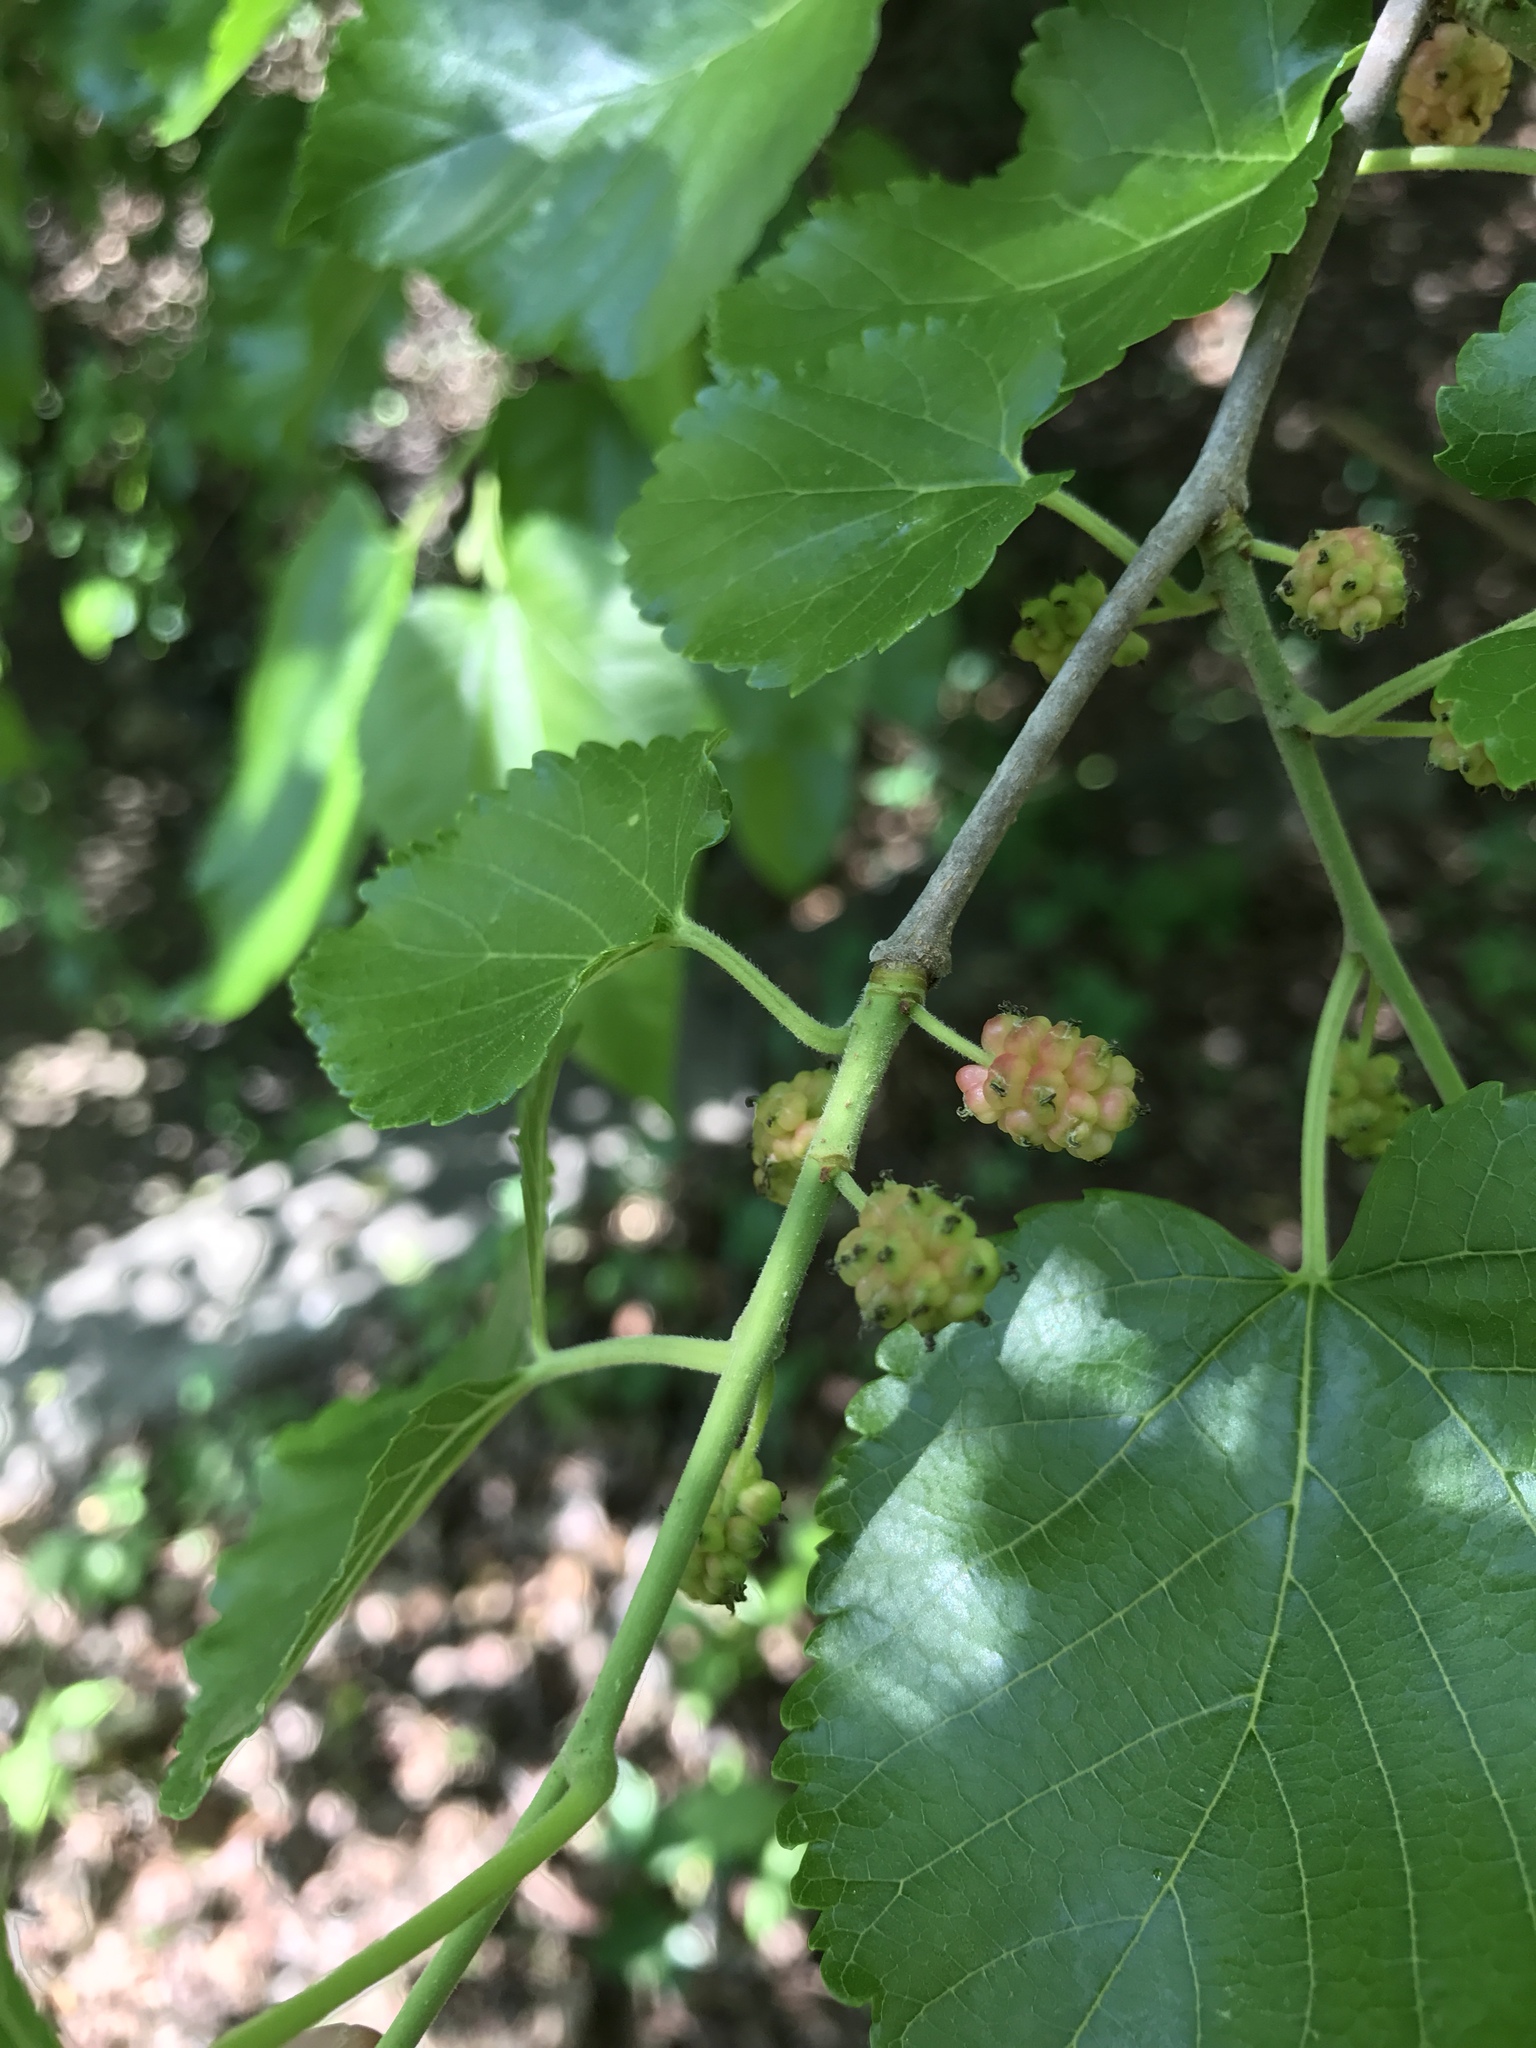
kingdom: Plantae
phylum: Tracheophyta
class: Magnoliopsida
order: Rosales
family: Moraceae
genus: Morus
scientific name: Morus alba
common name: White mulberry
